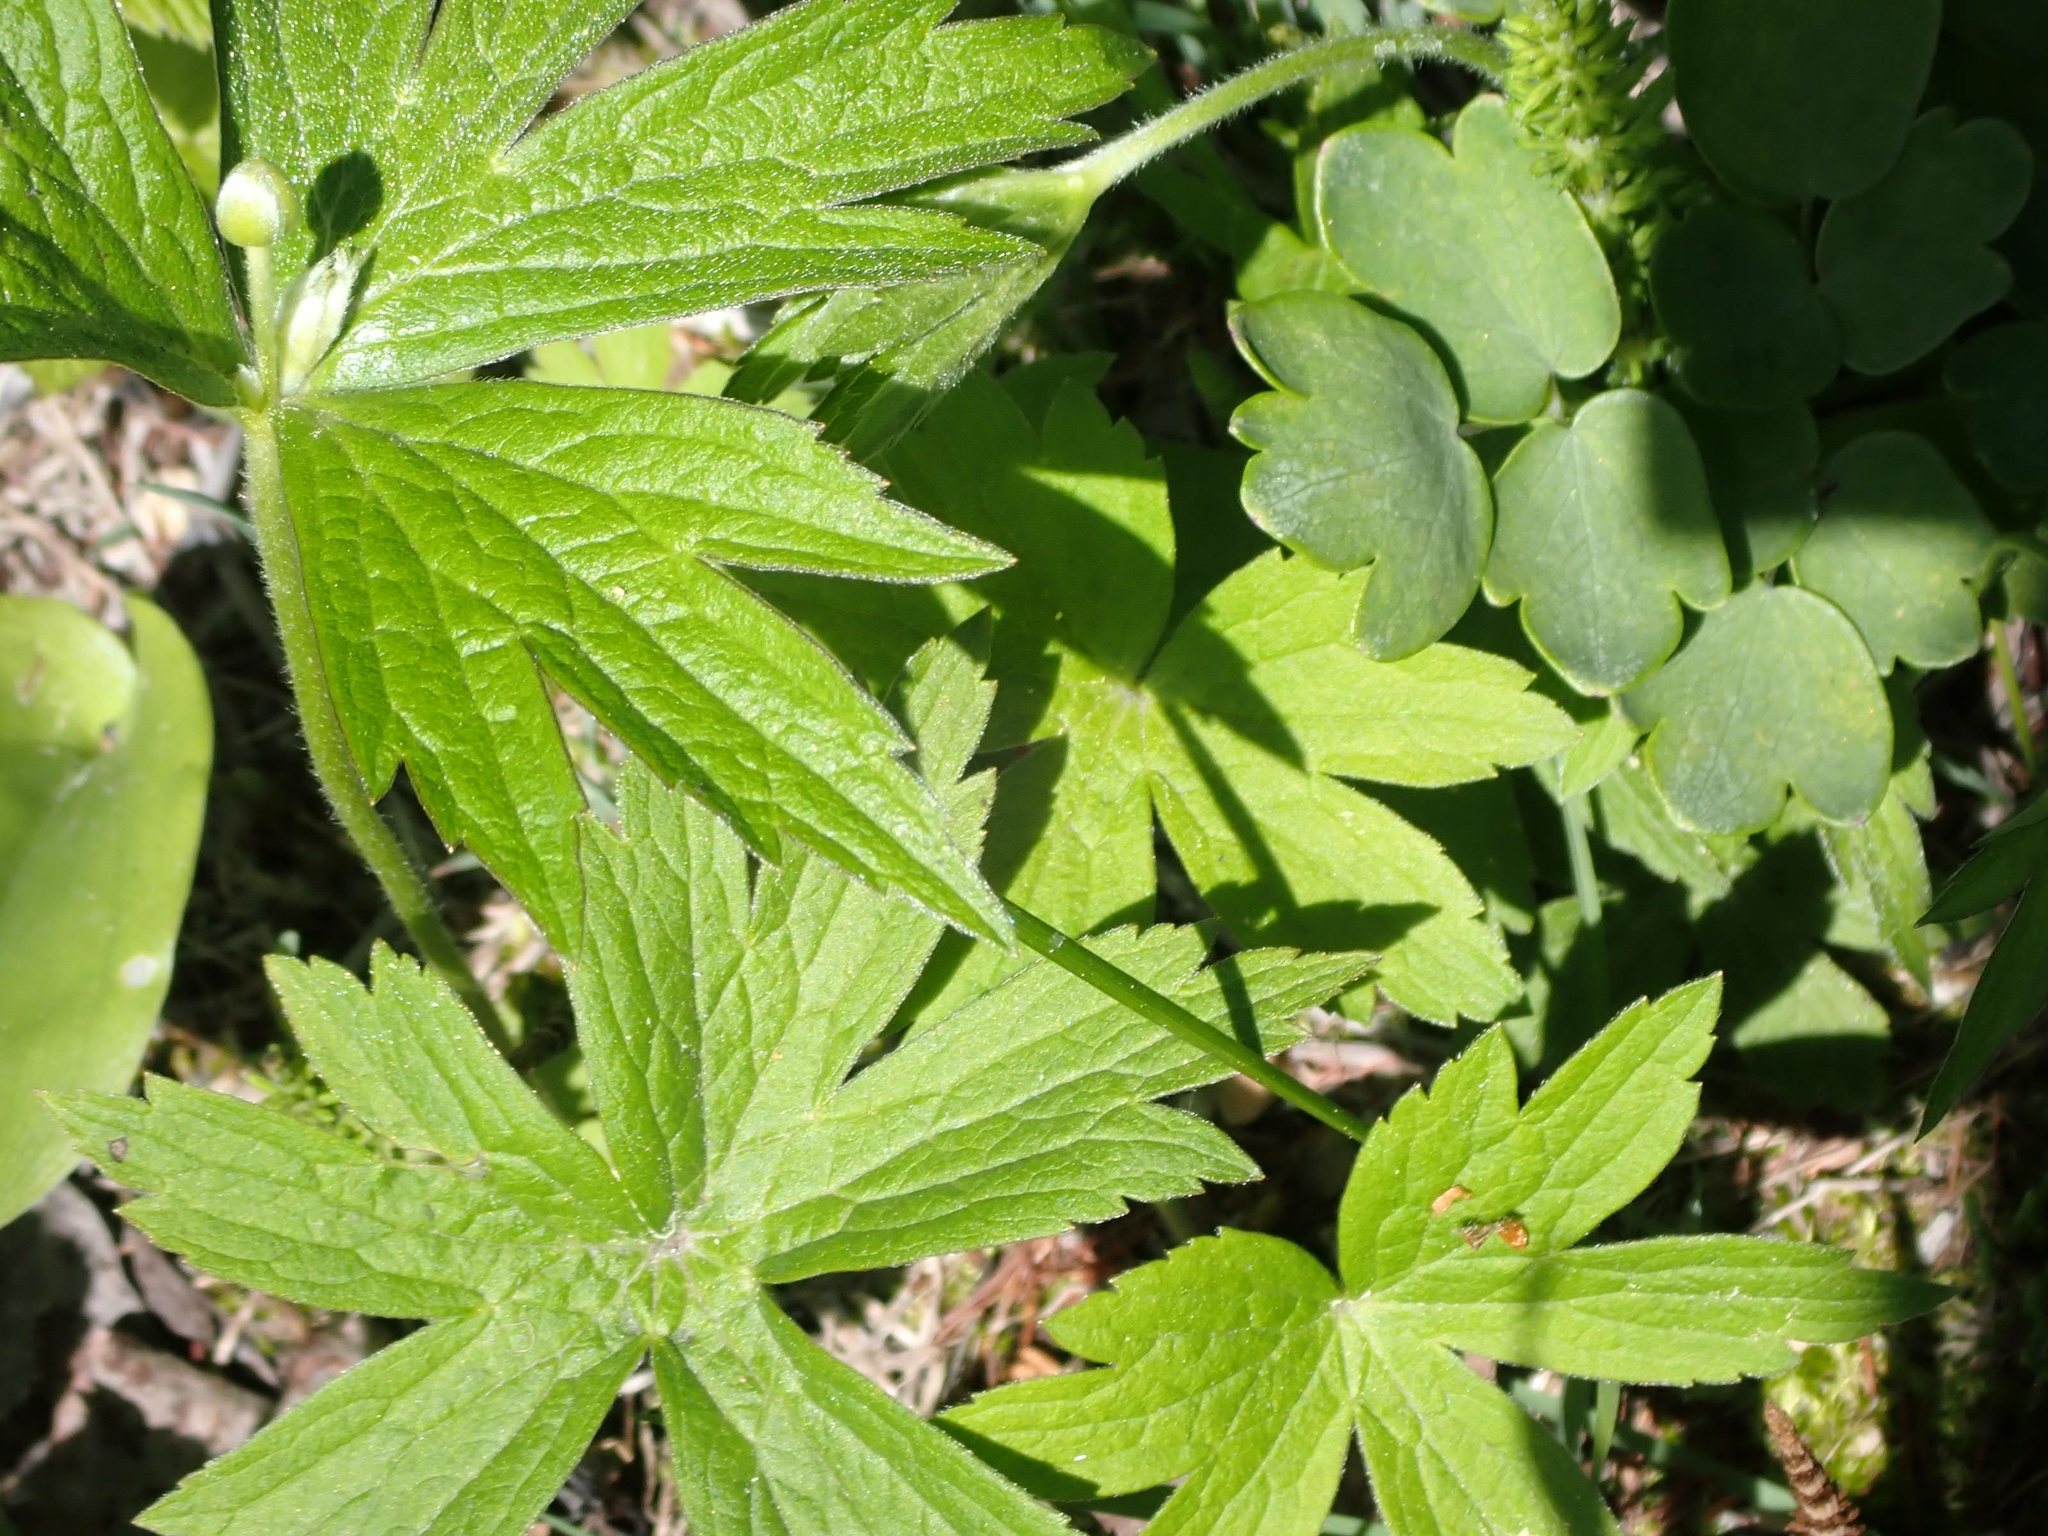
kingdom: Plantae
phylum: Tracheophyta
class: Magnoliopsida
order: Ranunculales
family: Ranunculaceae
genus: Anemonastrum
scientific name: Anemonastrum canadense
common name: Canada anemone
